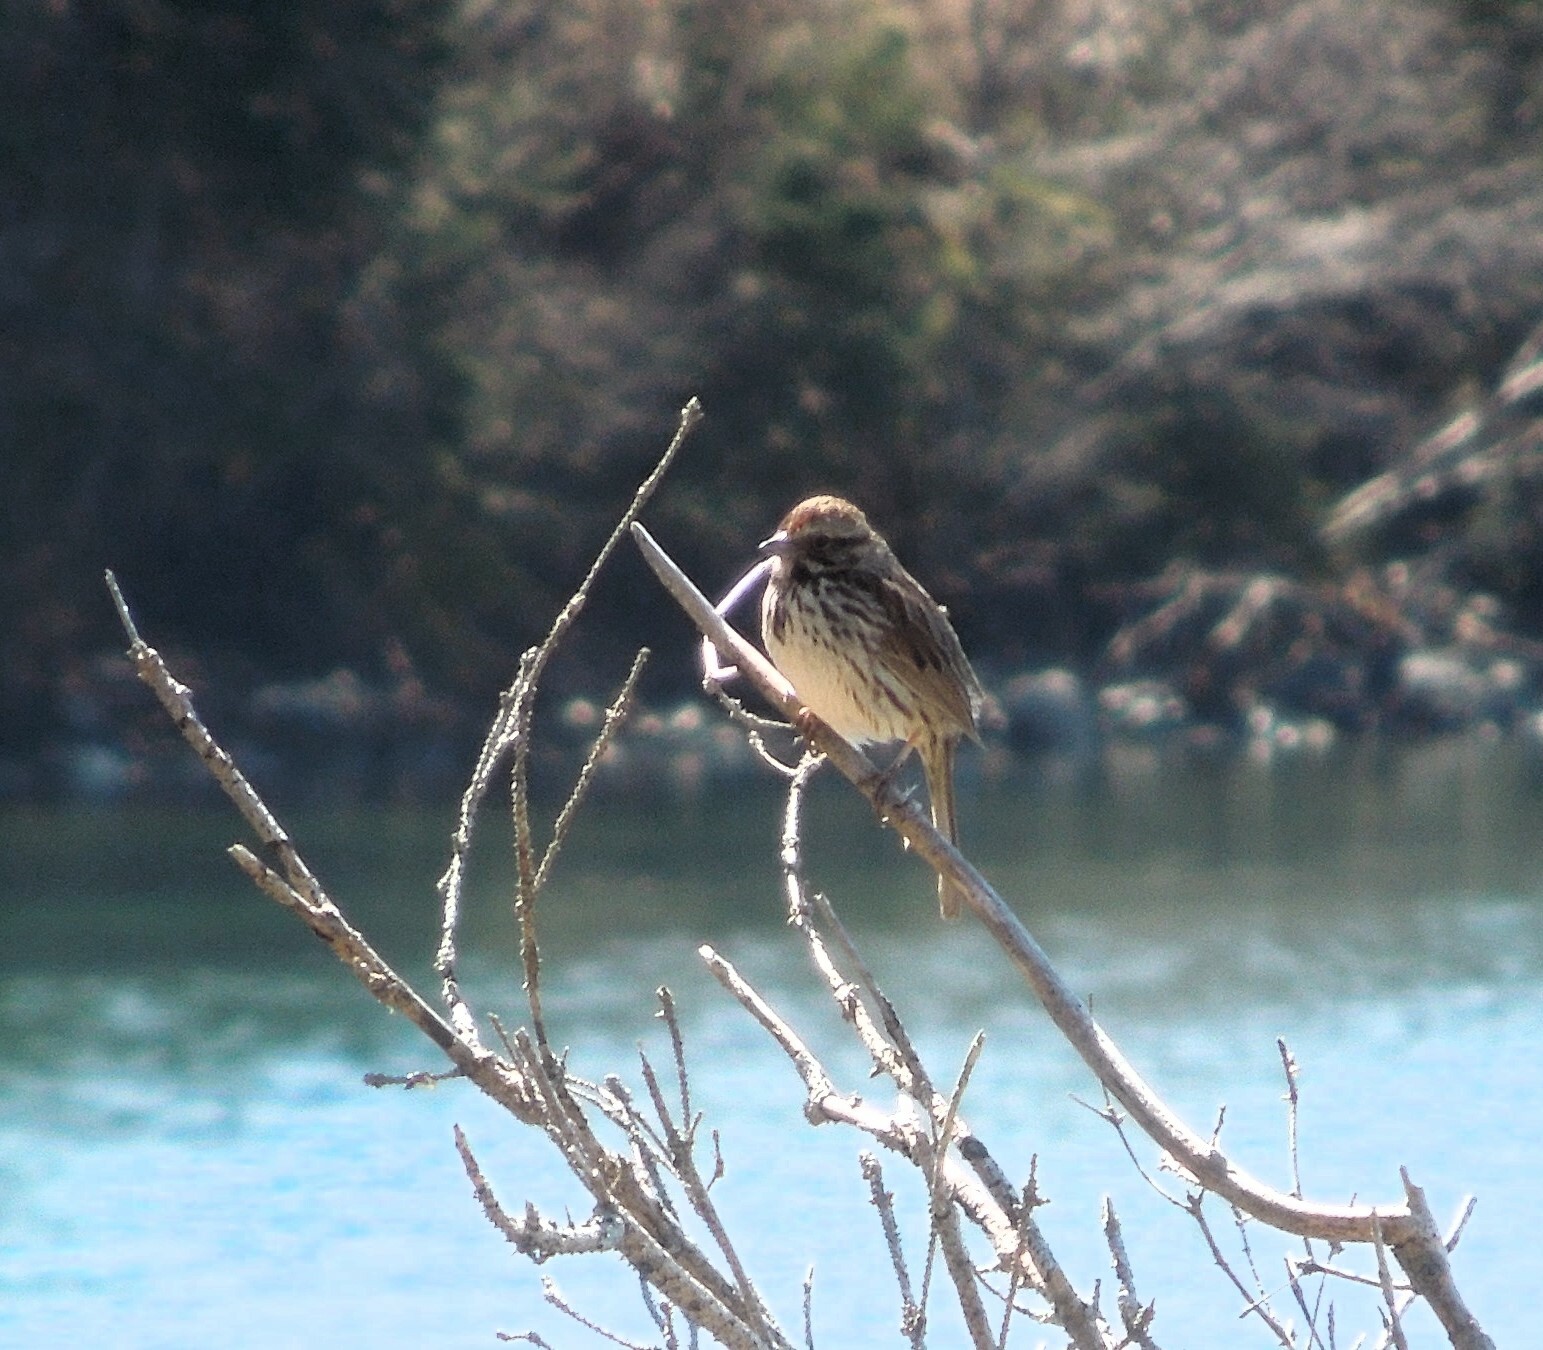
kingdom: Animalia
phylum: Chordata
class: Aves
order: Passeriformes
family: Passerellidae
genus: Melospiza
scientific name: Melospiza melodia
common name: Song sparrow
